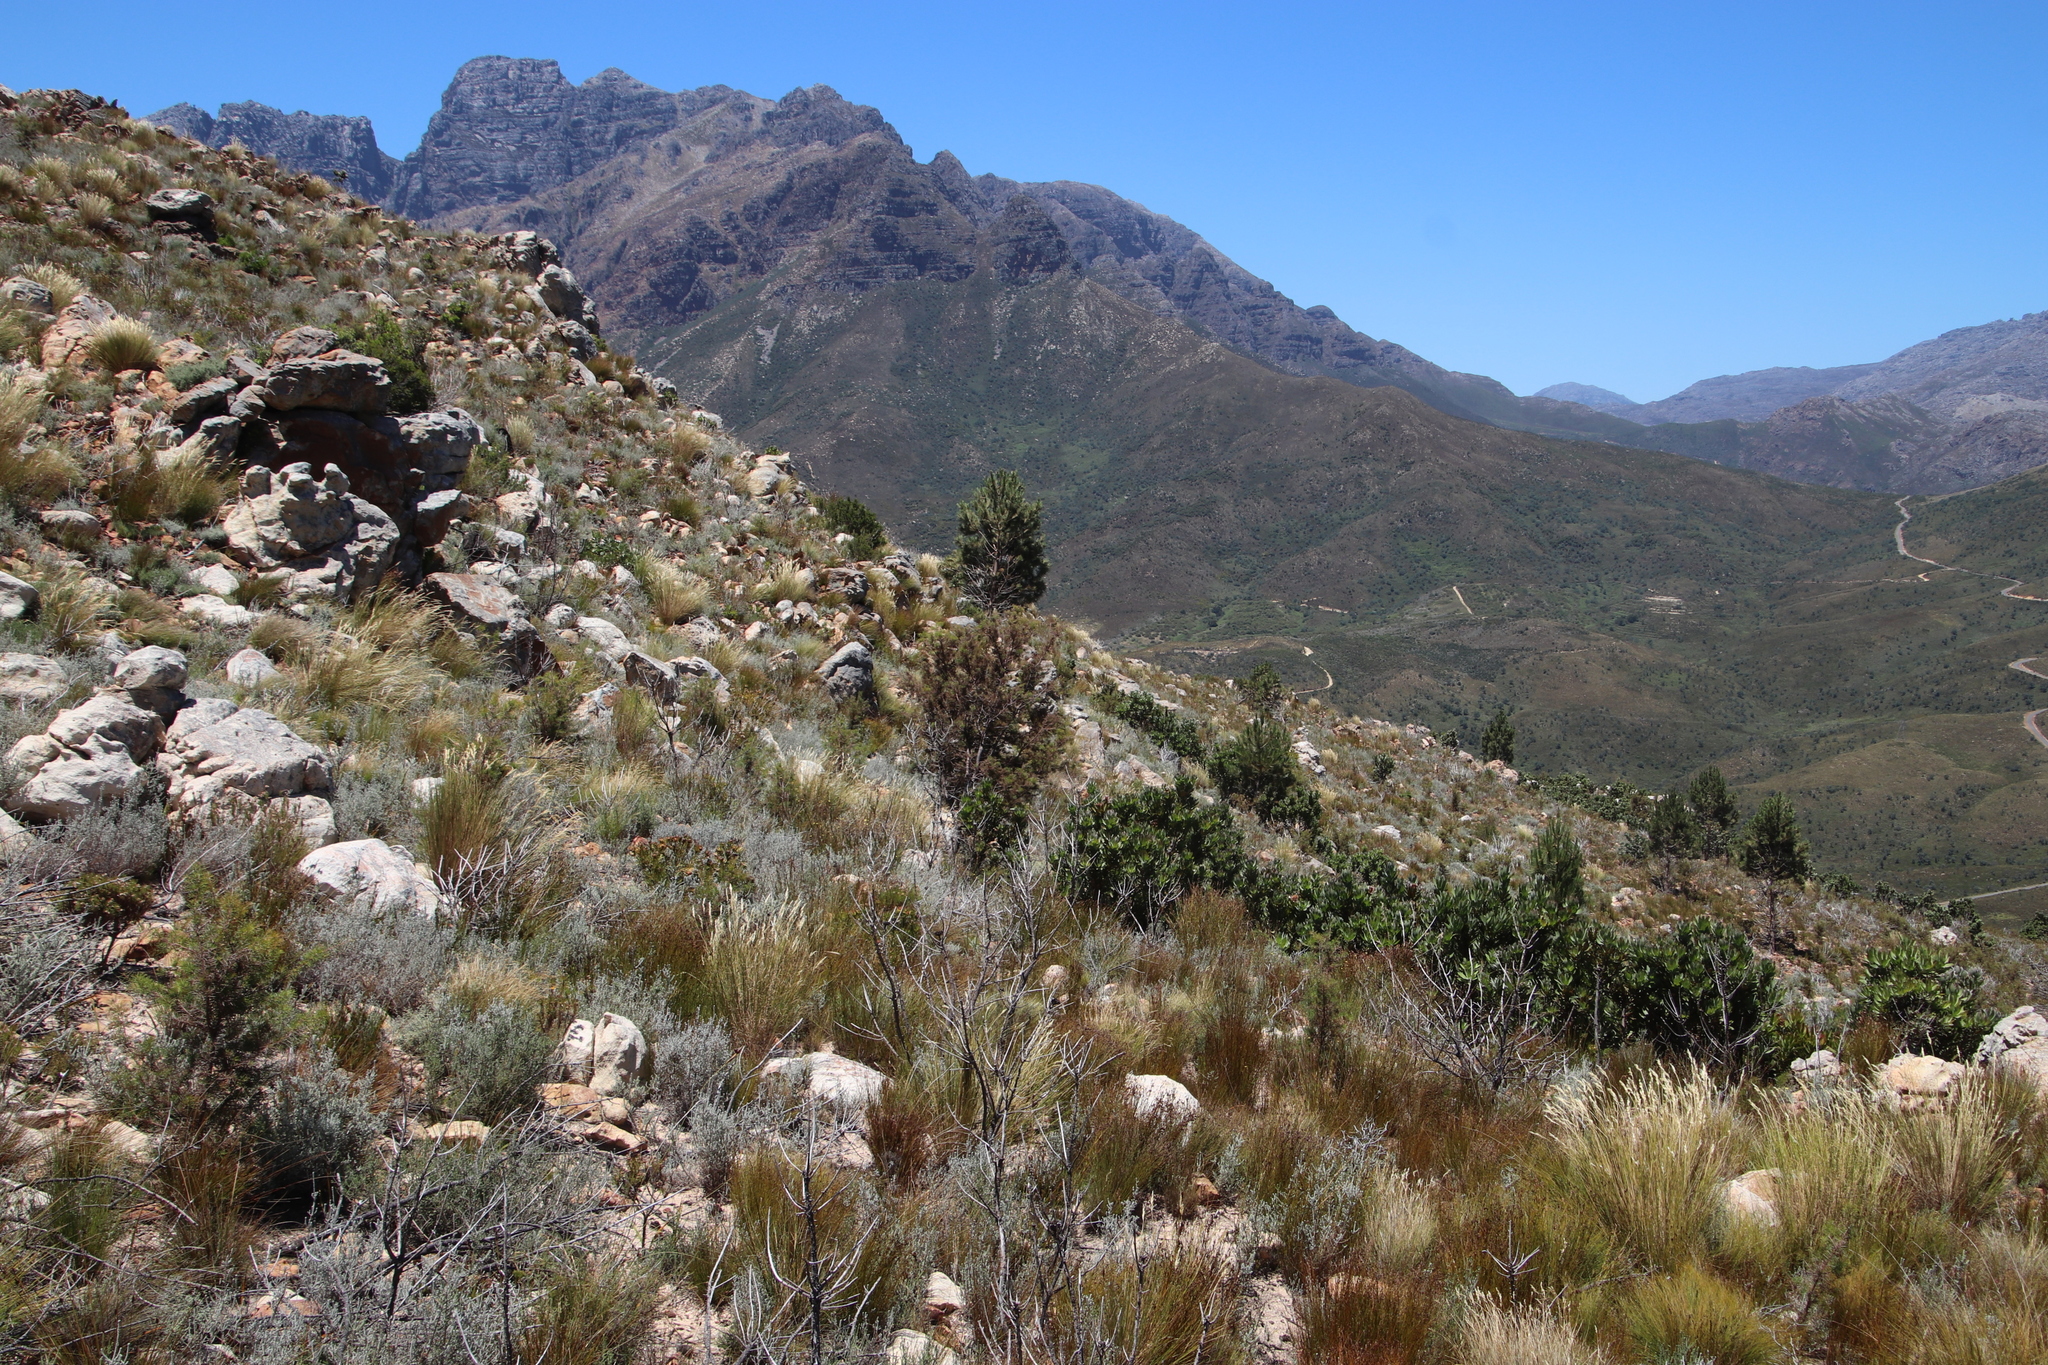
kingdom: Plantae
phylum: Tracheophyta
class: Pinopsida
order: Pinales
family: Pinaceae
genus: Pinus
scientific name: Pinus pinaster
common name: Maritime pine
